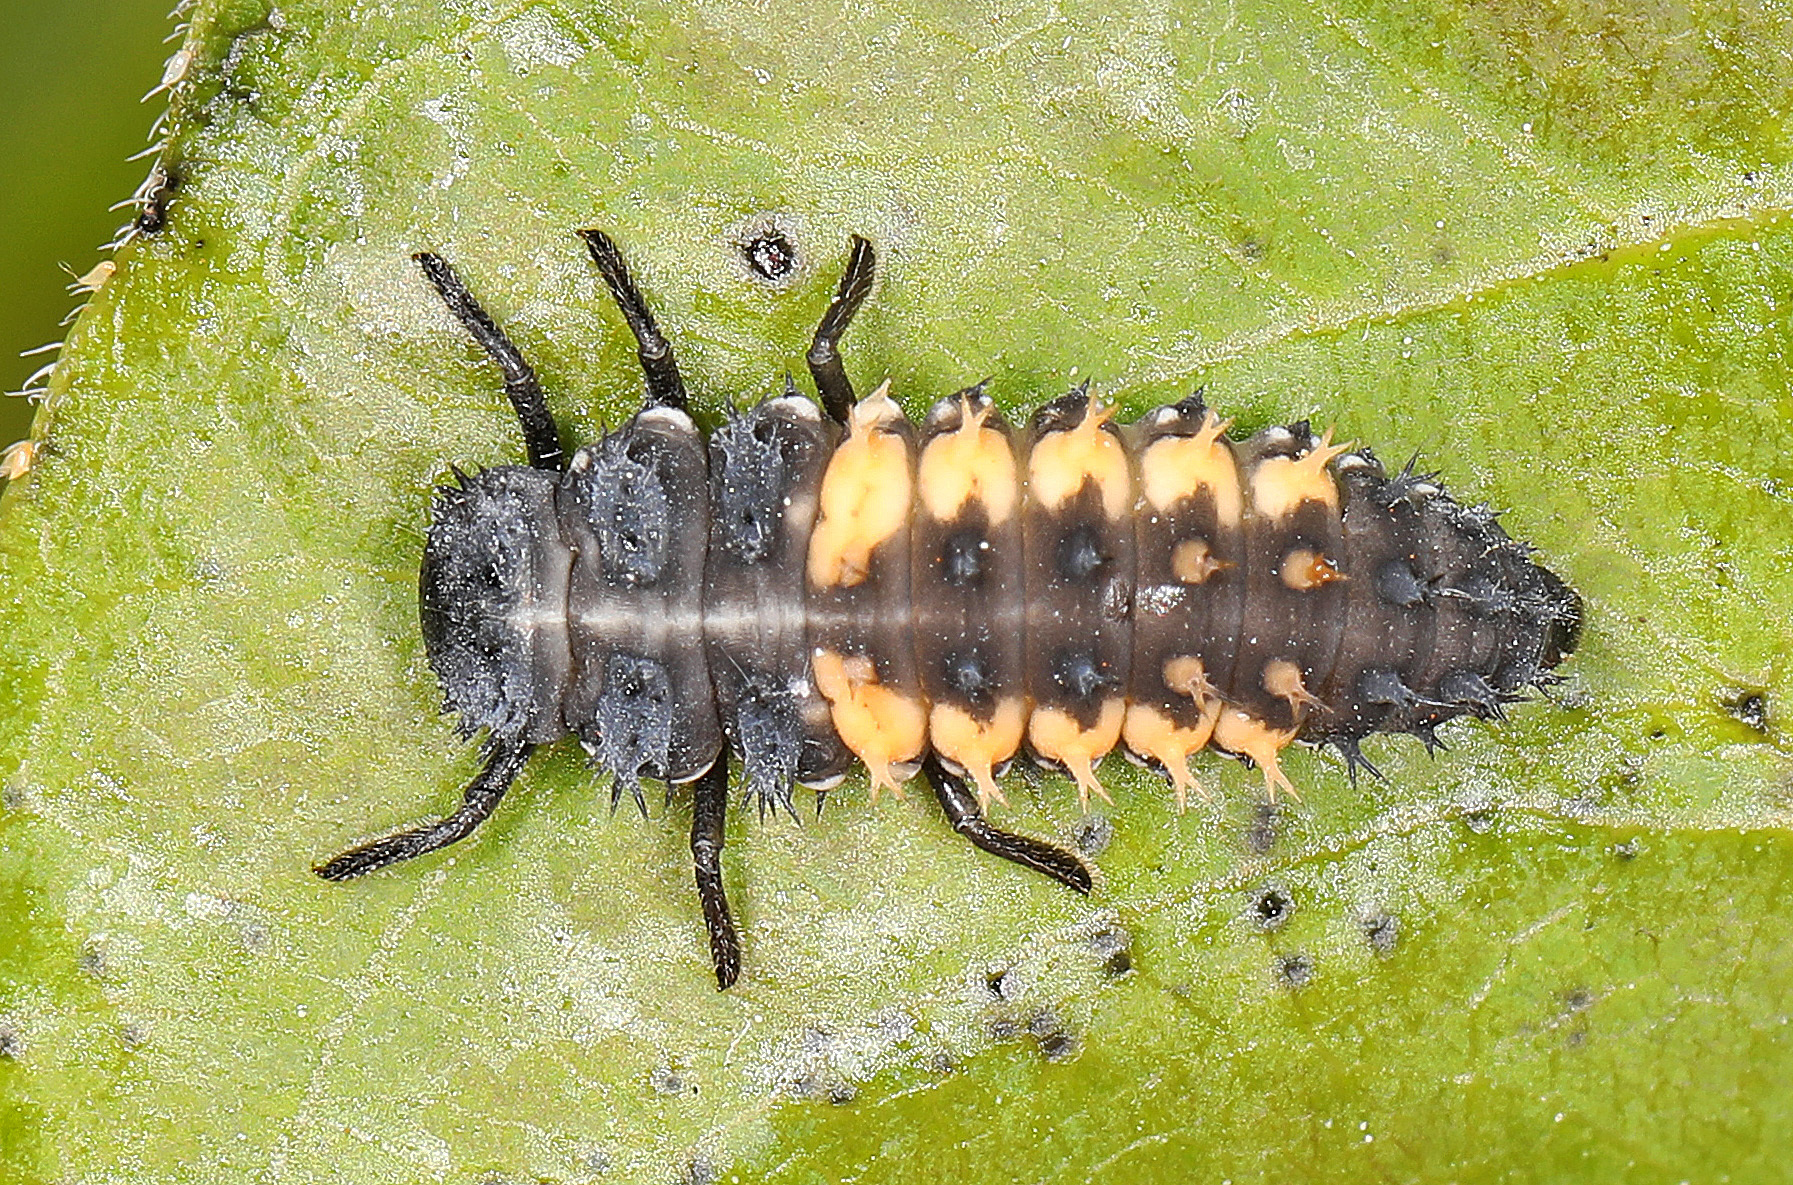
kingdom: Animalia
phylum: Arthropoda
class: Insecta
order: Coleoptera
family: Coccinellidae
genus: Harmonia
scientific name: Harmonia axyridis
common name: Harlequin ladybird
